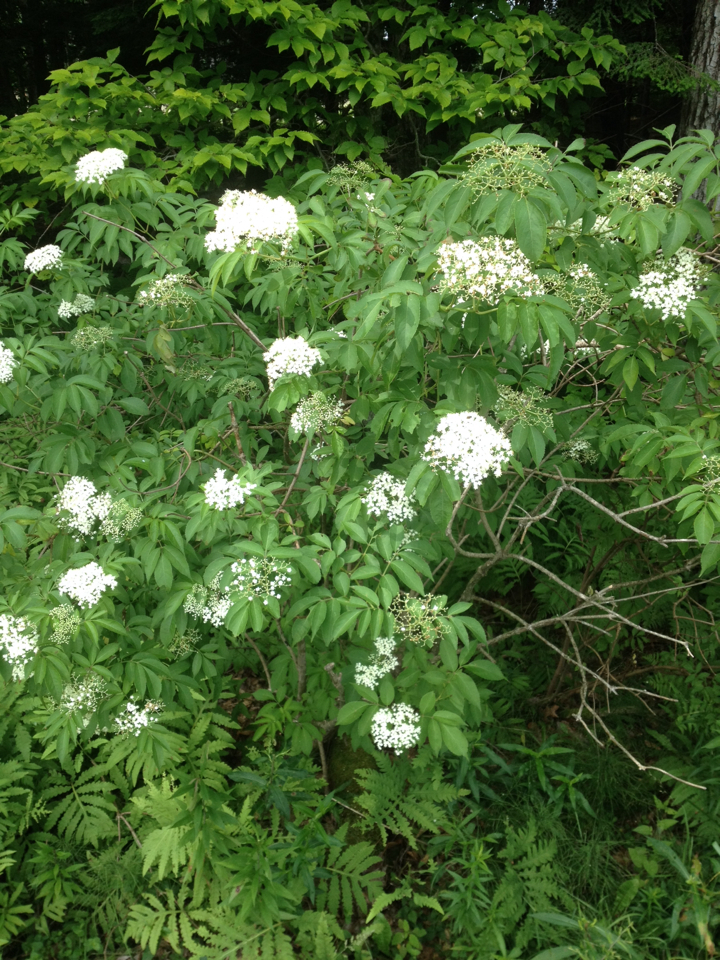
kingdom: Plantae
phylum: Tracheophyta
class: Magnoliopsida
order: Dipsacales
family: Viburnaceae
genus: Sambucus
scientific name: Sambucus canadensis
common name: American elder
